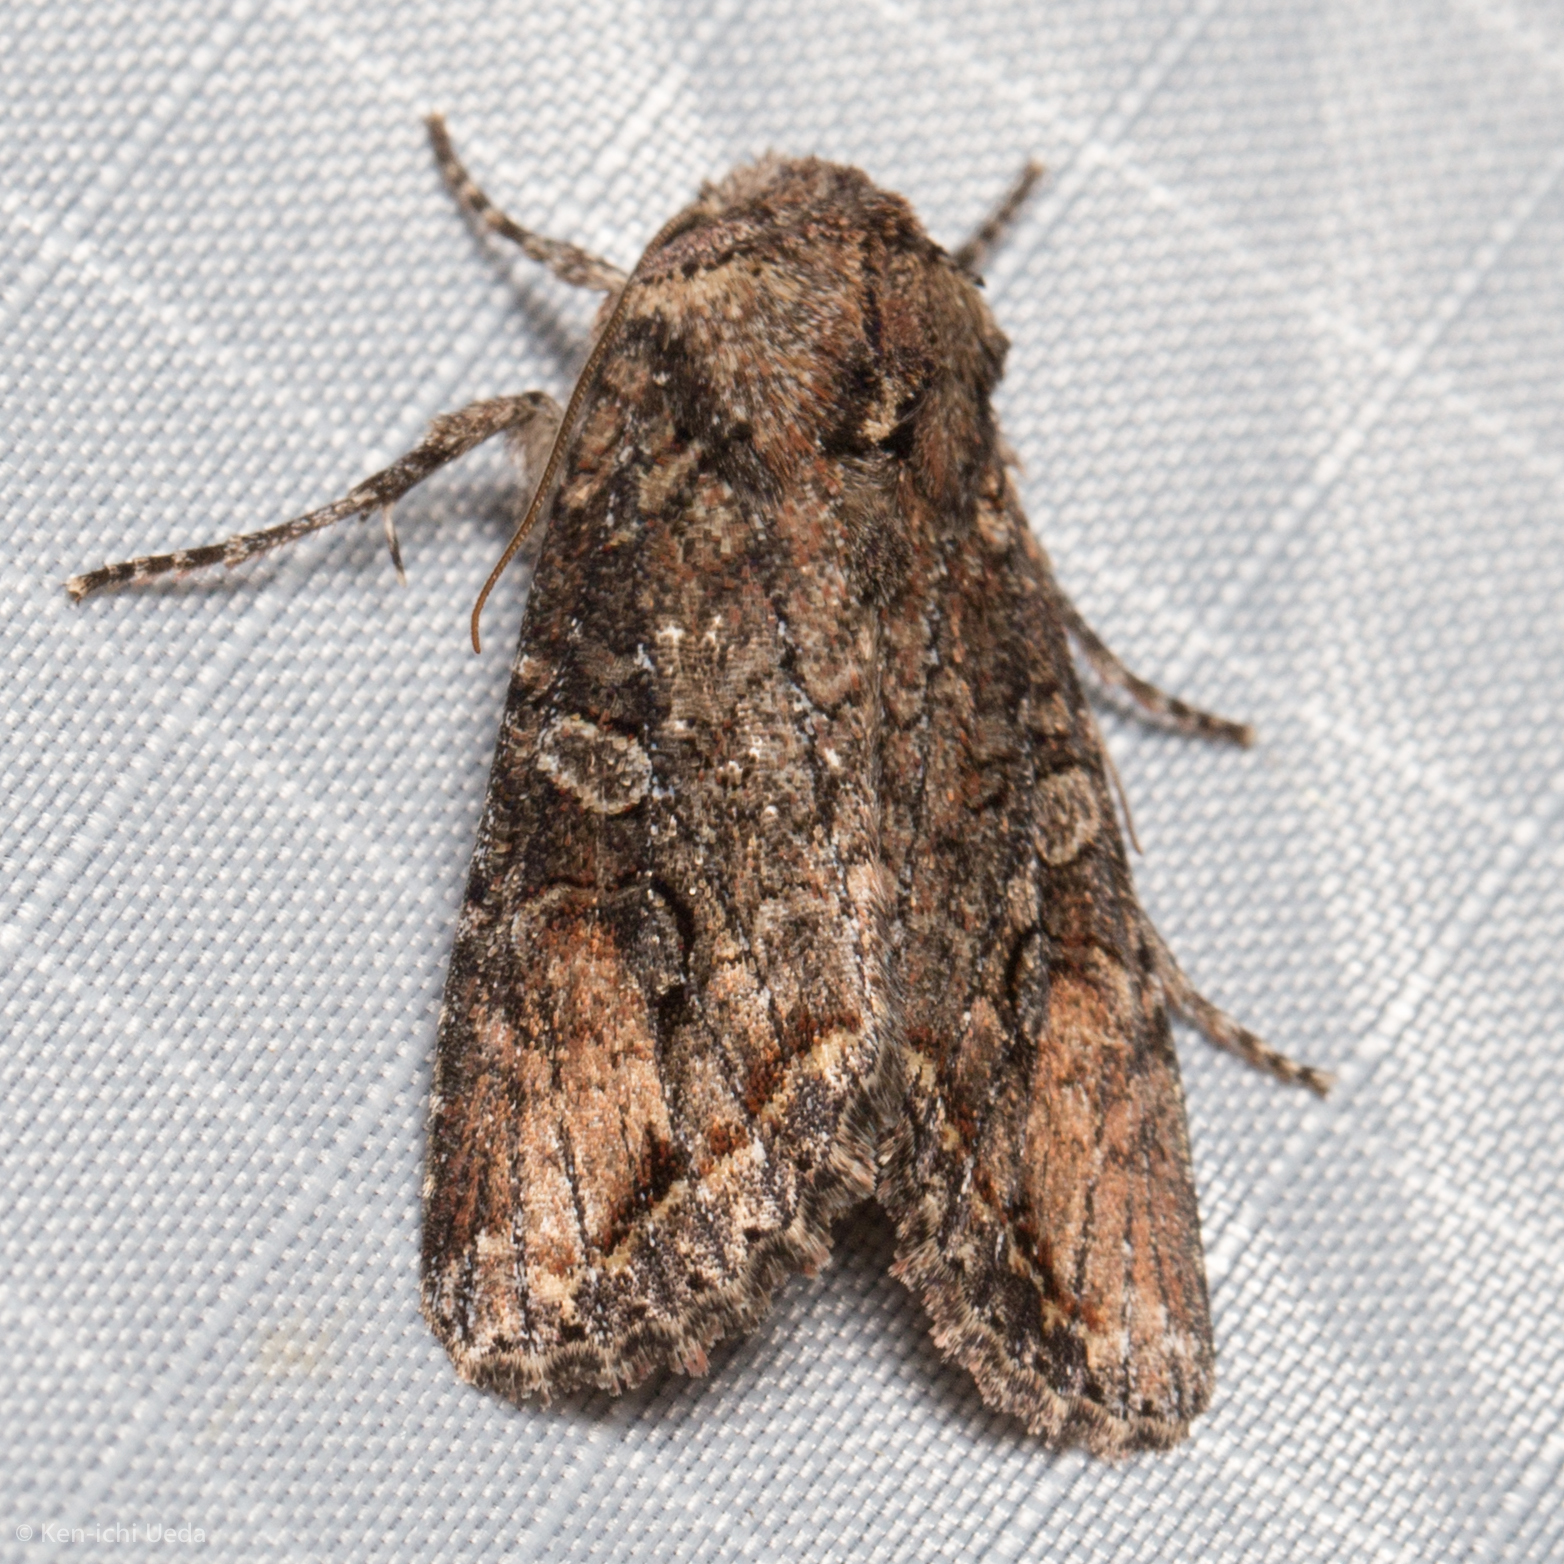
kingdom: Animalia
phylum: Arthropoda
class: Insecta
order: Lepidoptera
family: Noctuidae
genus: Egira
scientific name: Egira perlubens
